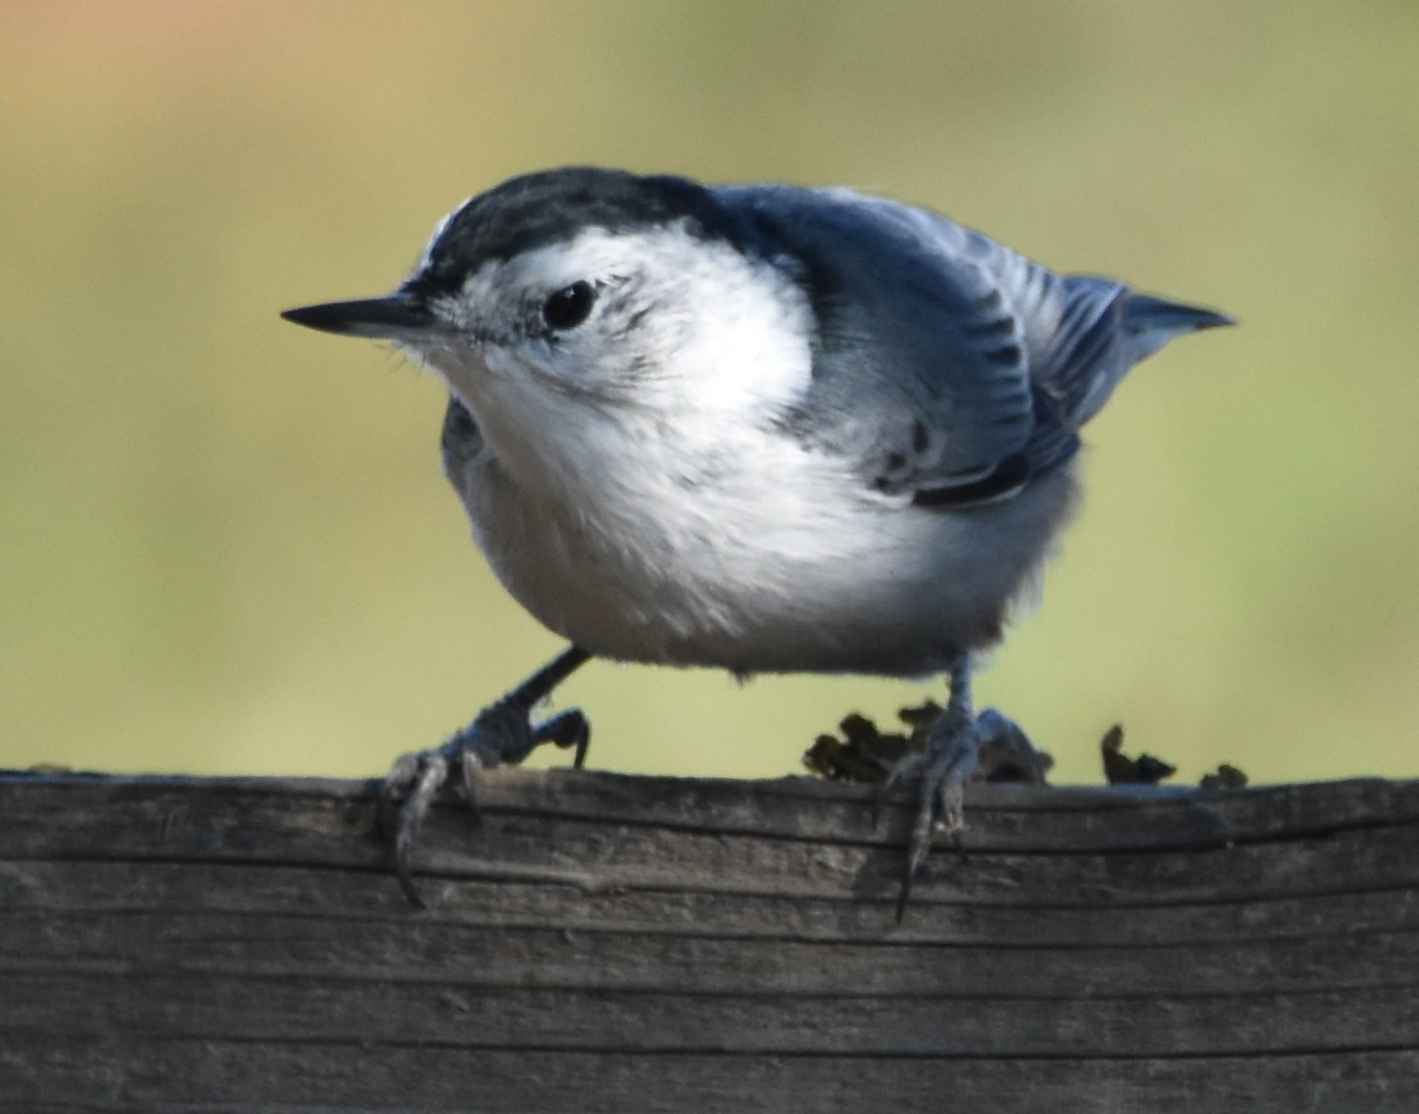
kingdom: Animalia
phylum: Chordata
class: Aves
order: Passeriformes
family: Sittidae
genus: Sitta
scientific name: Sitta carolinensis
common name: White-breasted nuthatch
